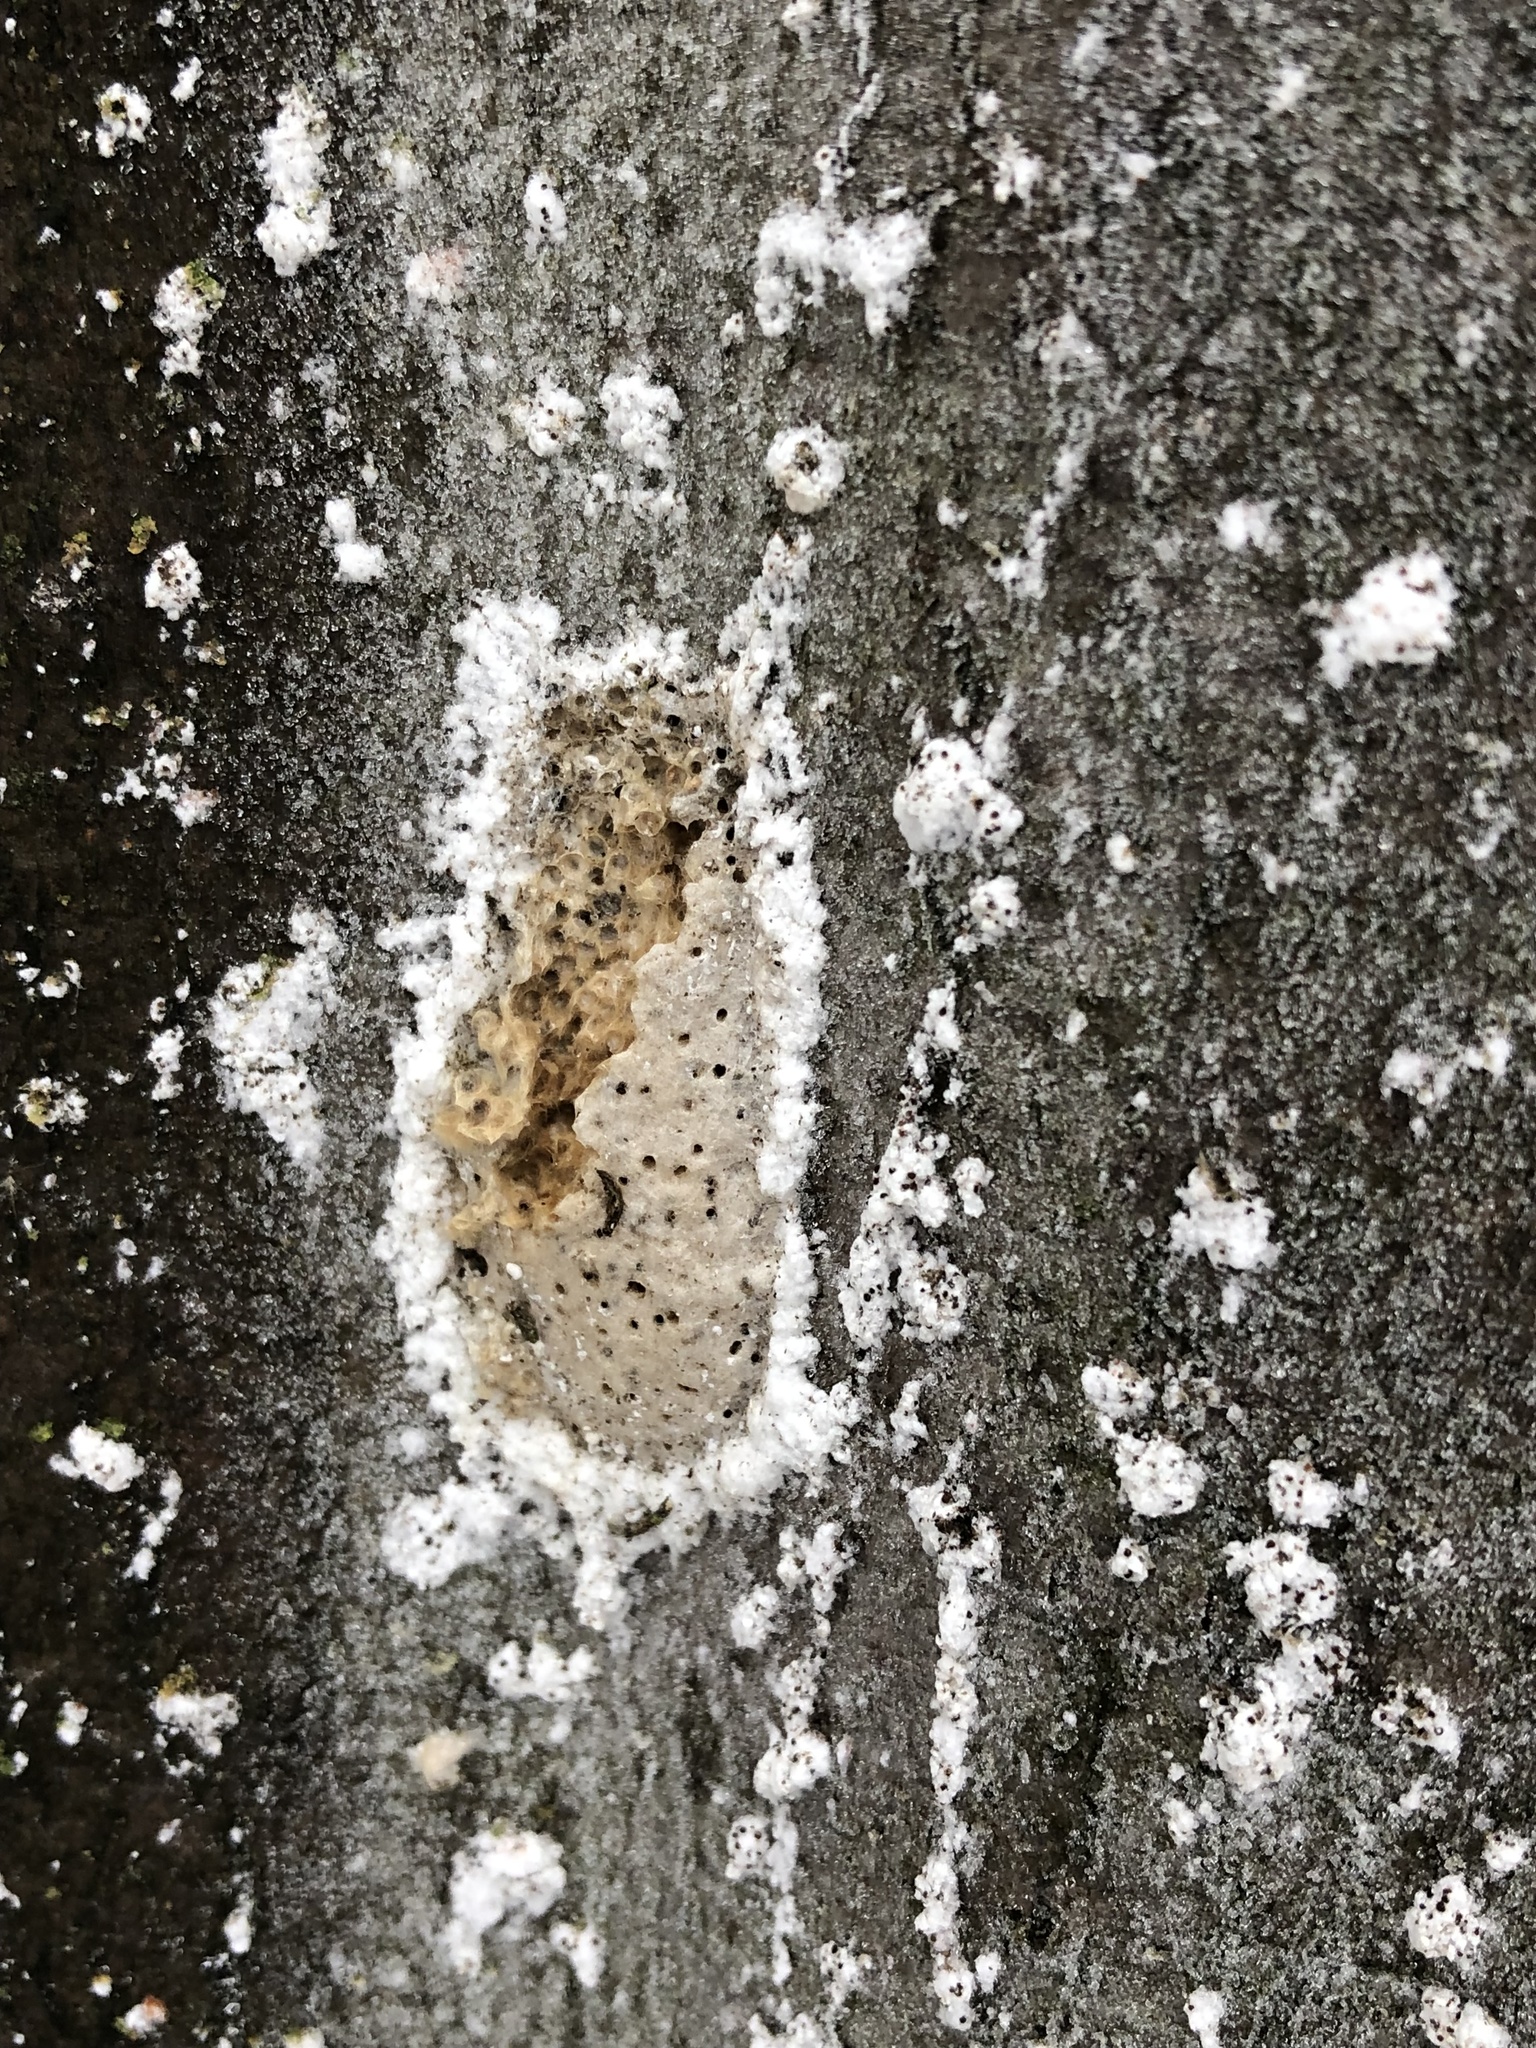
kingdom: Animalia
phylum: Arthropoda
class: Insecta
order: Lepidoptera
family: Erebidae
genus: Lymantria
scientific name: Lymantria dispar
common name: Gypsy moth
